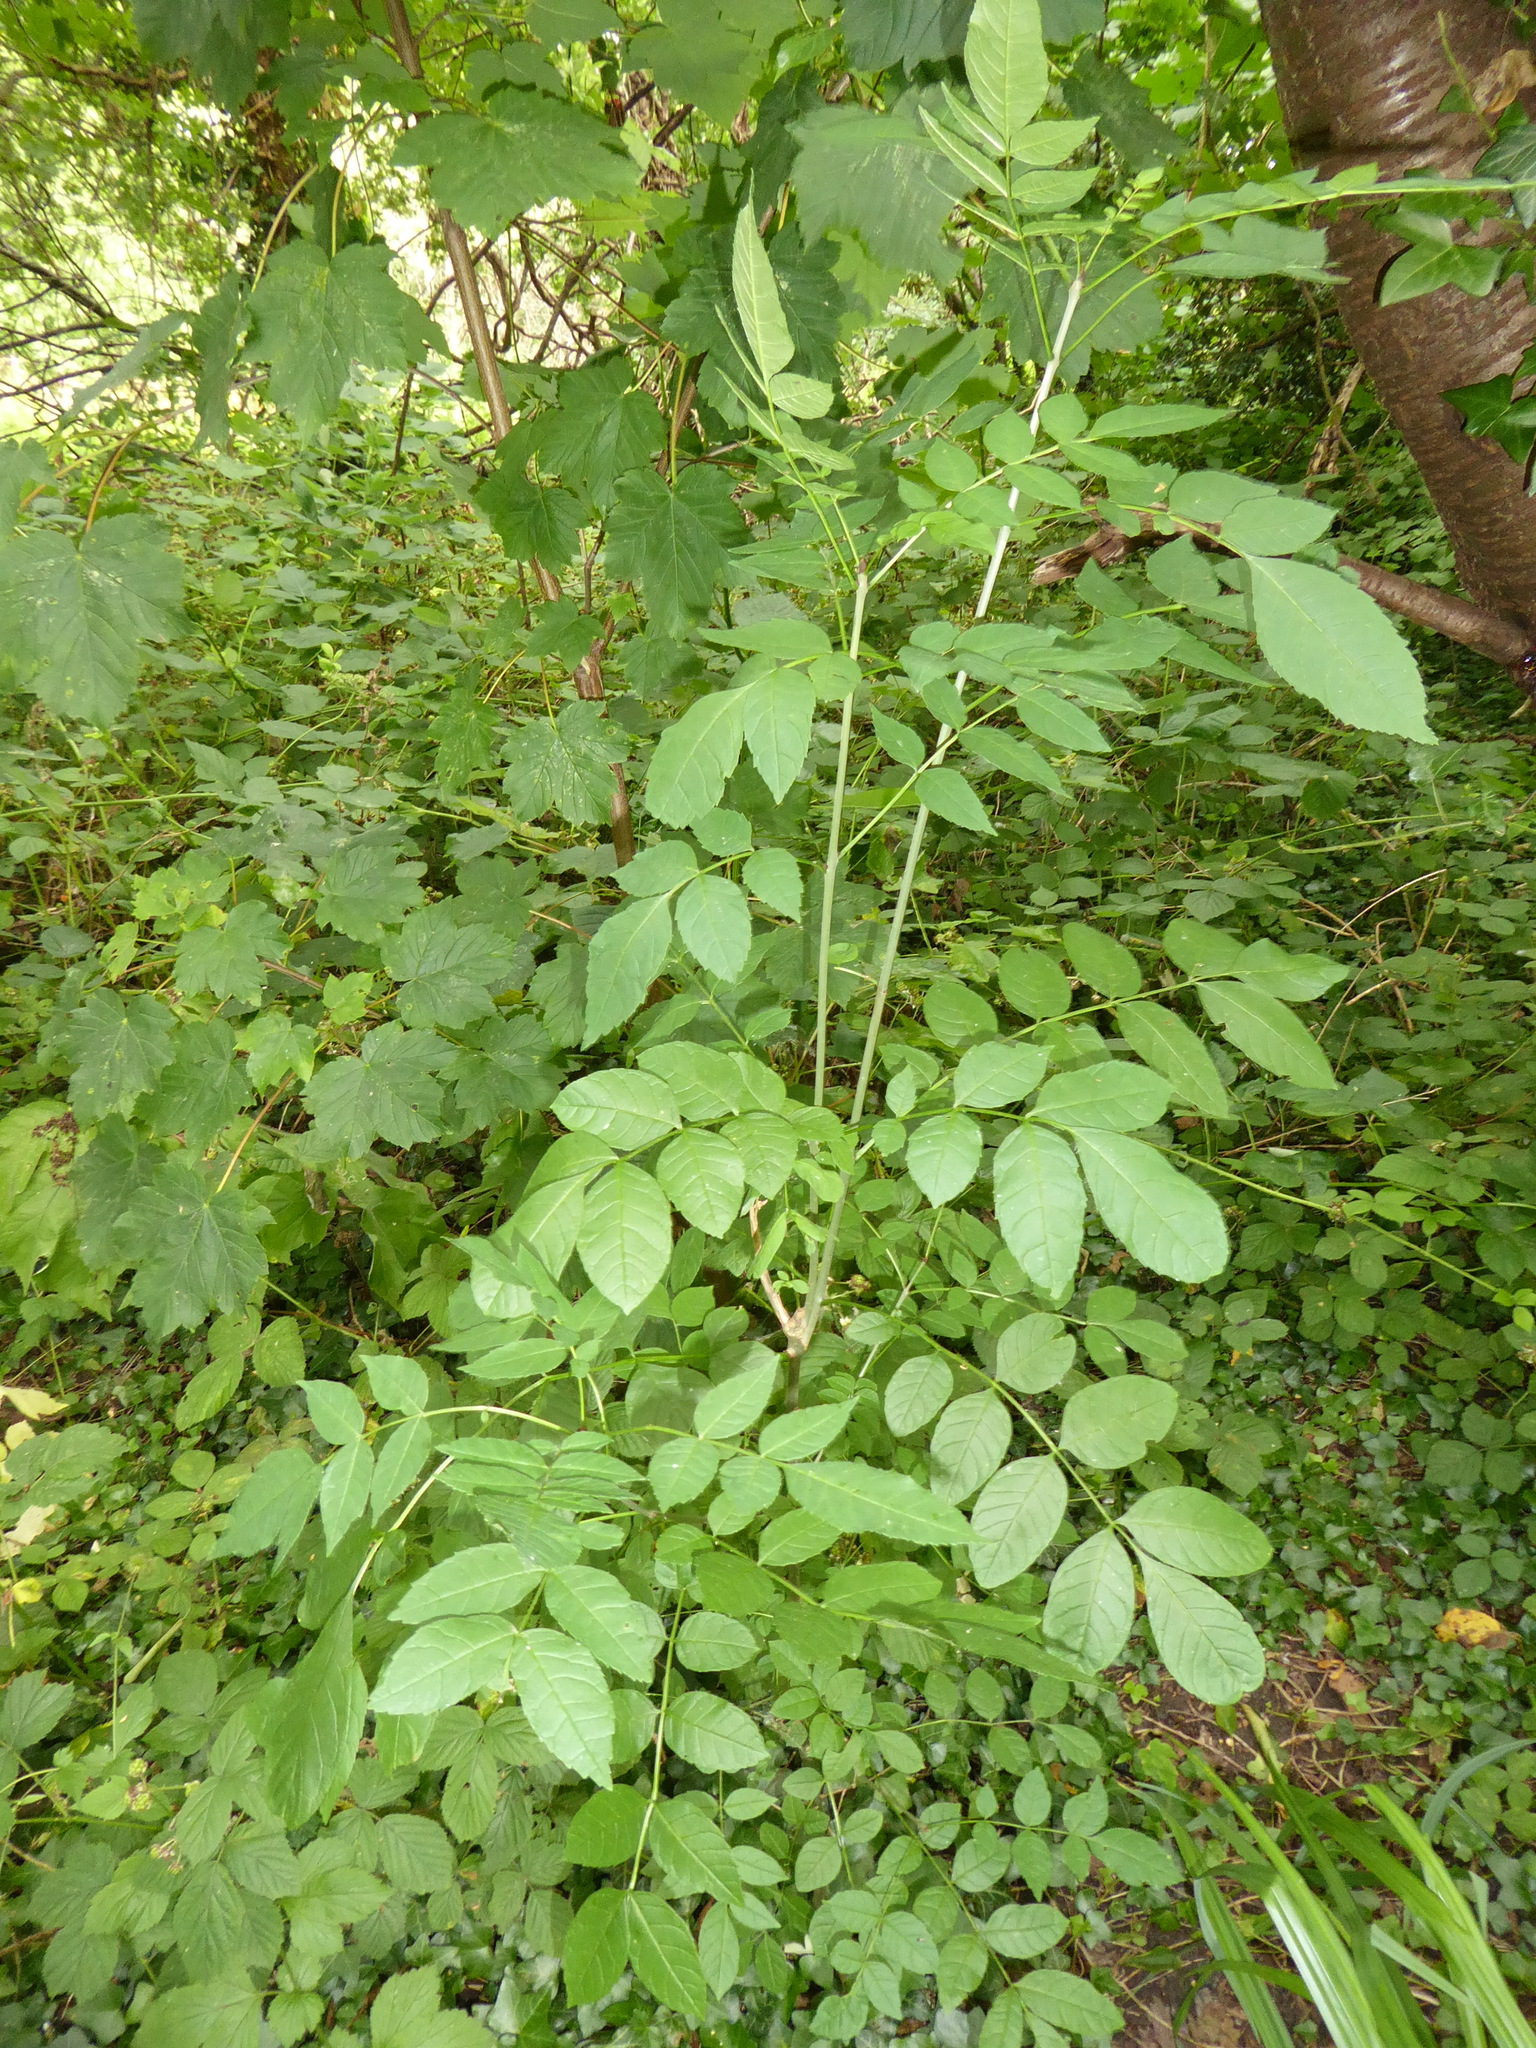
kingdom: Plantae
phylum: Tracheophyta
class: Magnoliopsida
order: Lamiales
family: Oleaceae
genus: Fraxinus
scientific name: Fraxinus excelsior
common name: European ash
